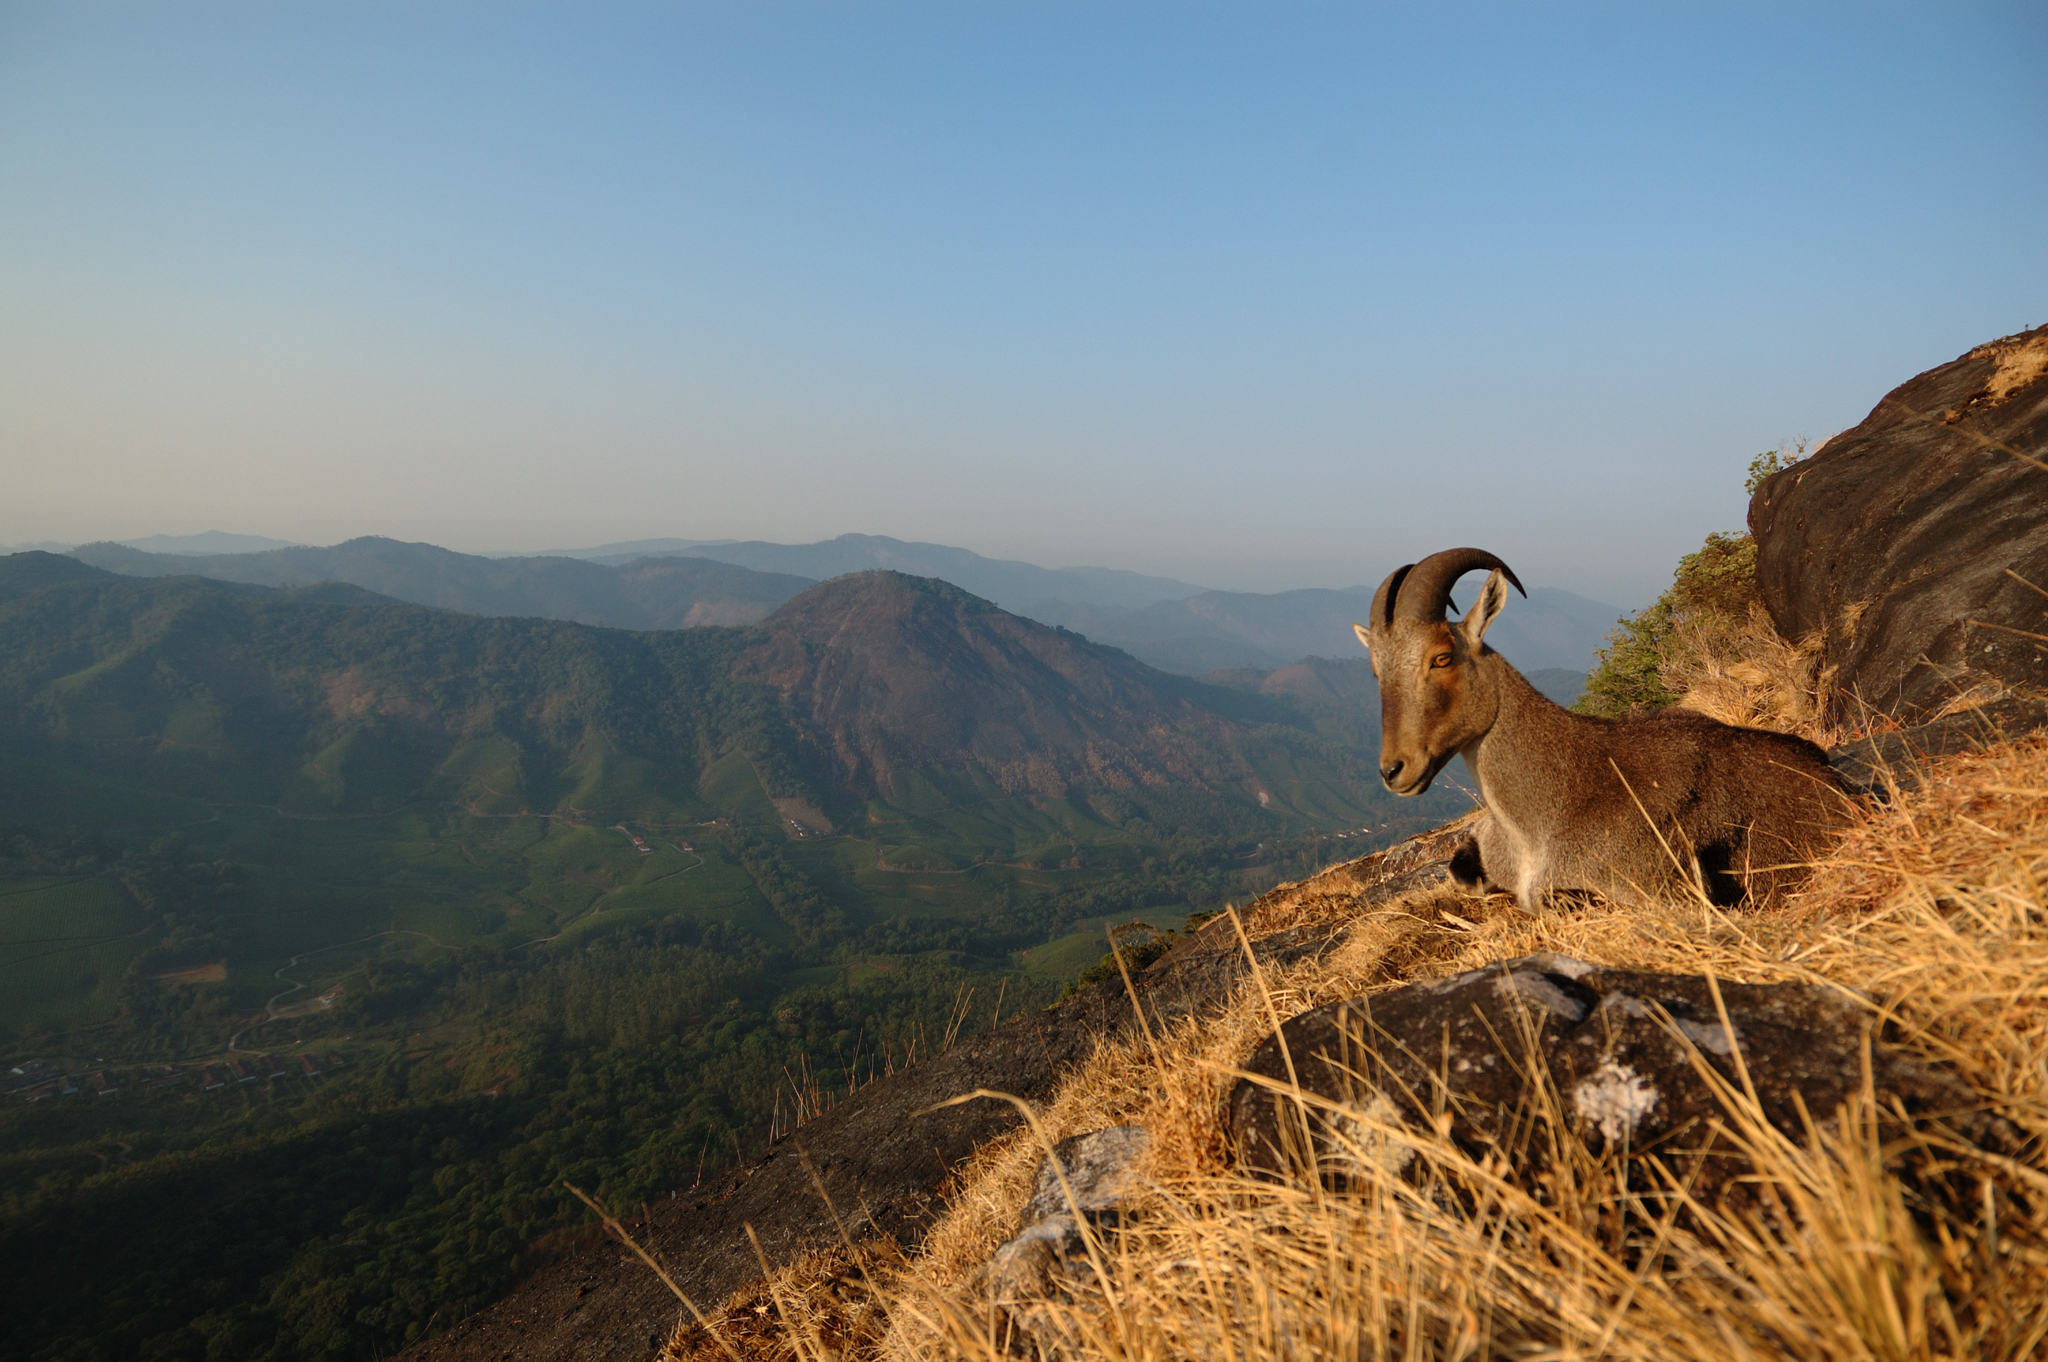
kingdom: Animalia
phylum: Chordata
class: Mammalia
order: Artiodactyla
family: Bovidae
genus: Hemitragus
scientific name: Hemitragus hylocrius
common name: Nilgiri tahr
